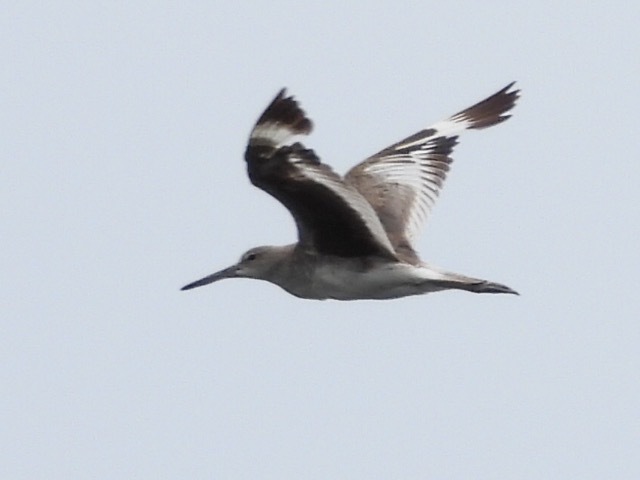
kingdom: Animalia
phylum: Chordata
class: Aves
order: Charadriiformes
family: Scolopacidae
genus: Tringa
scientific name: Tringa semipalmata
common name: Willet
